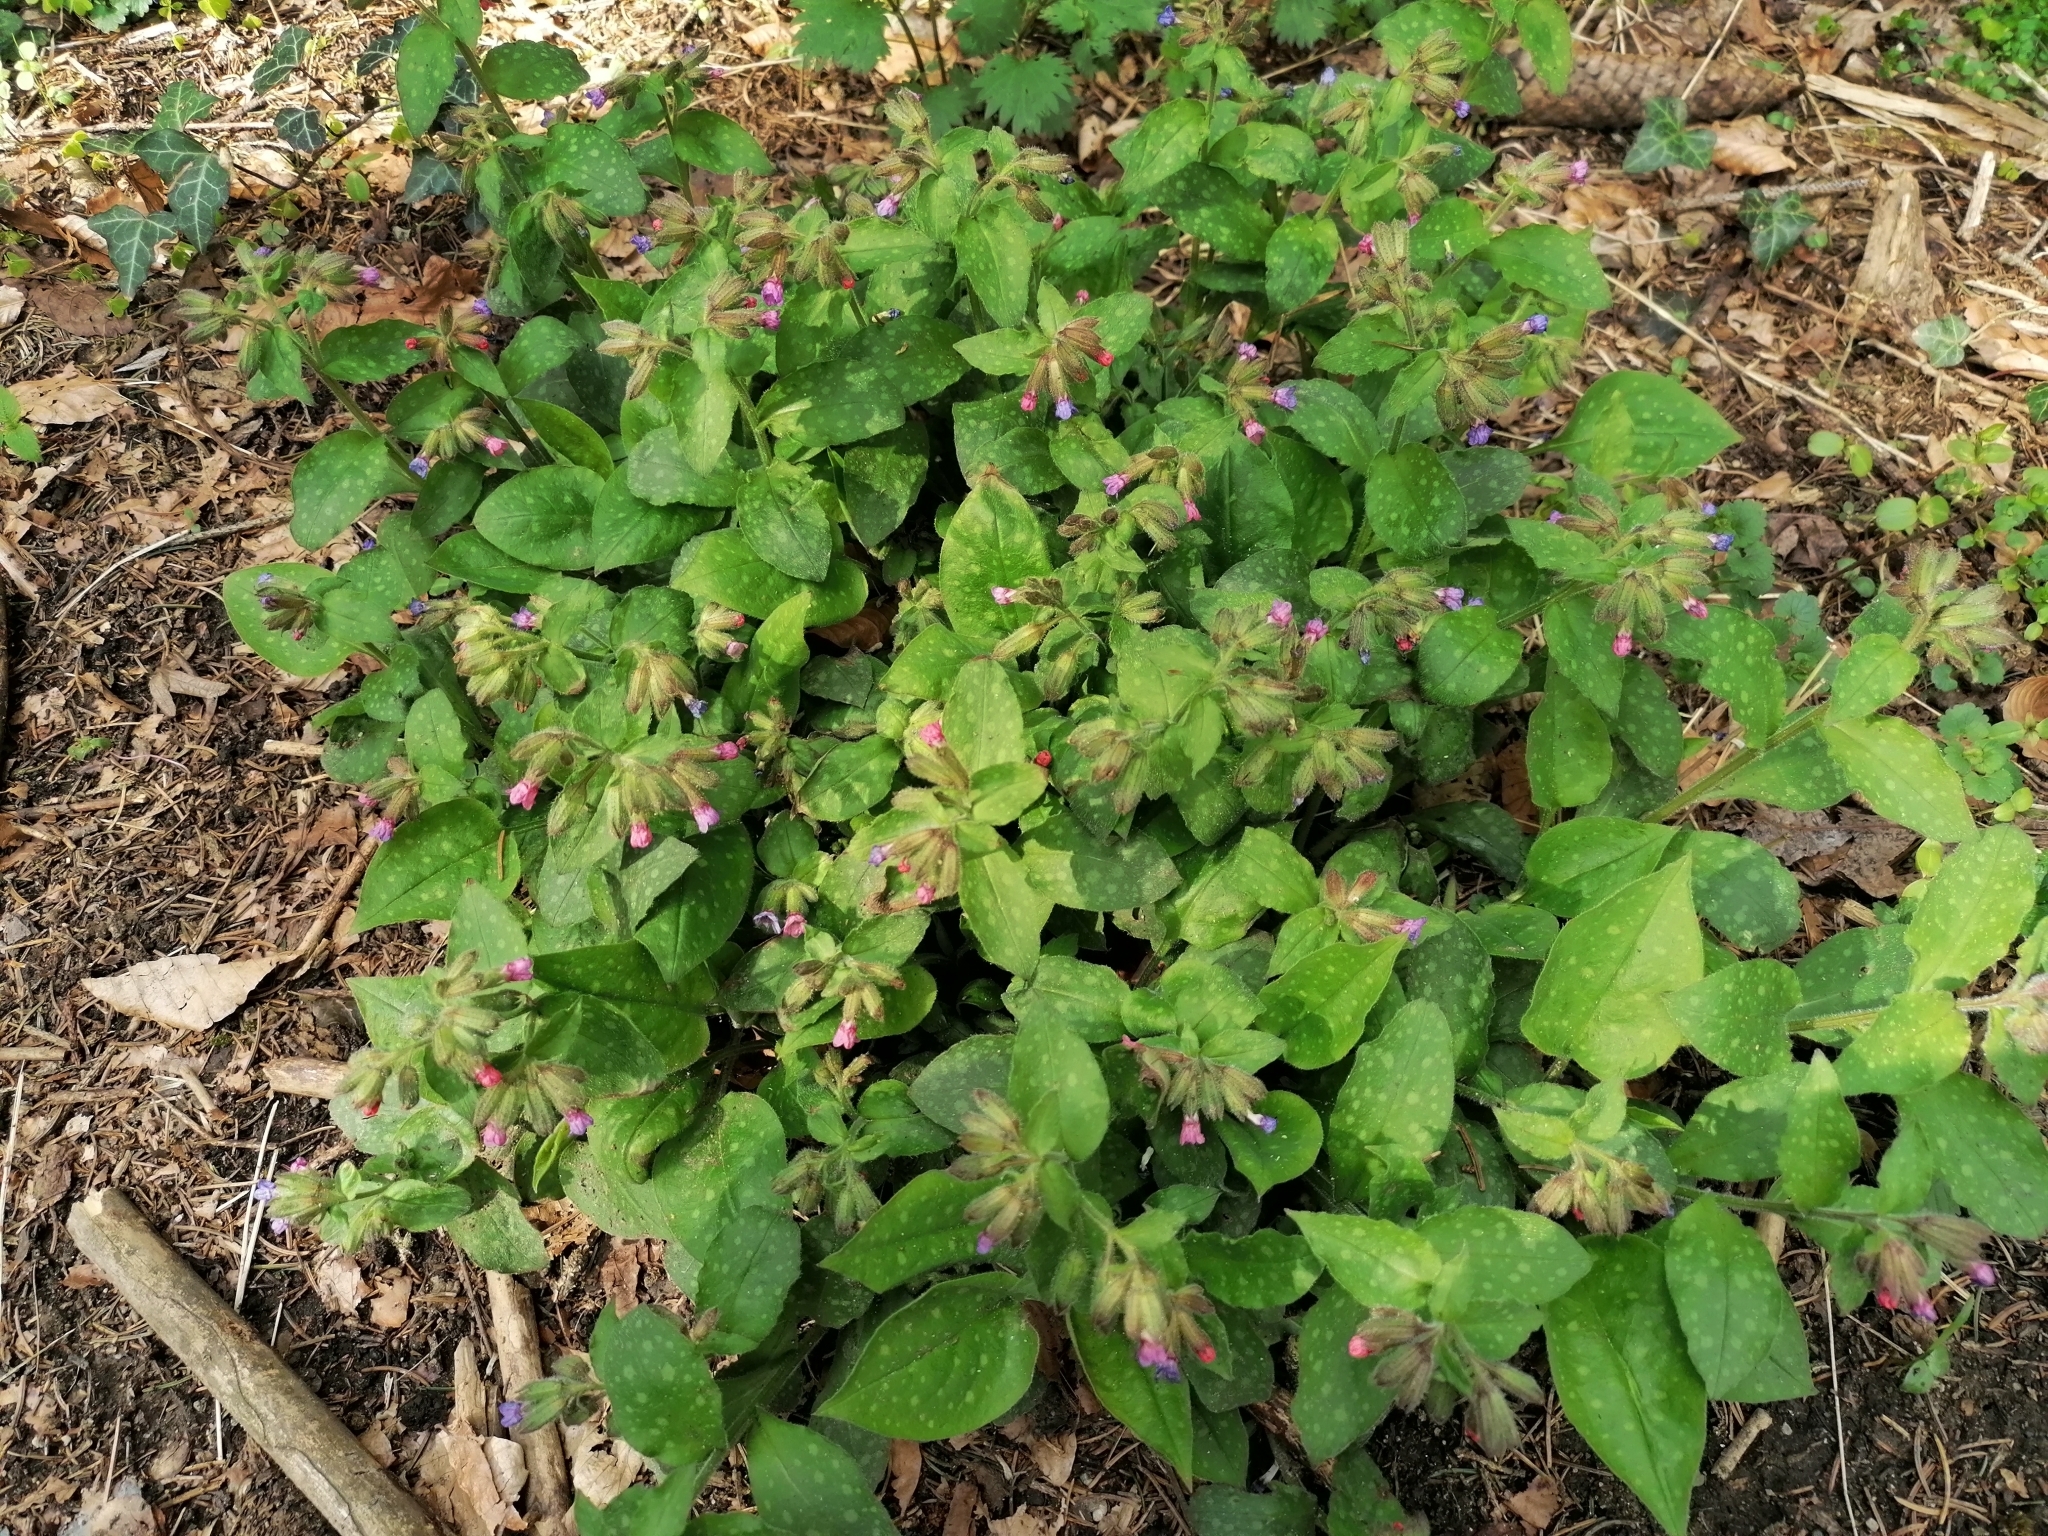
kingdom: Plantae
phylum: Tracheophyta
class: Magnoliopsida
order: Boraginales
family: Boraginaceae
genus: Pulmonaria
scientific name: Pulmonaria officinalis
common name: Lungwort
